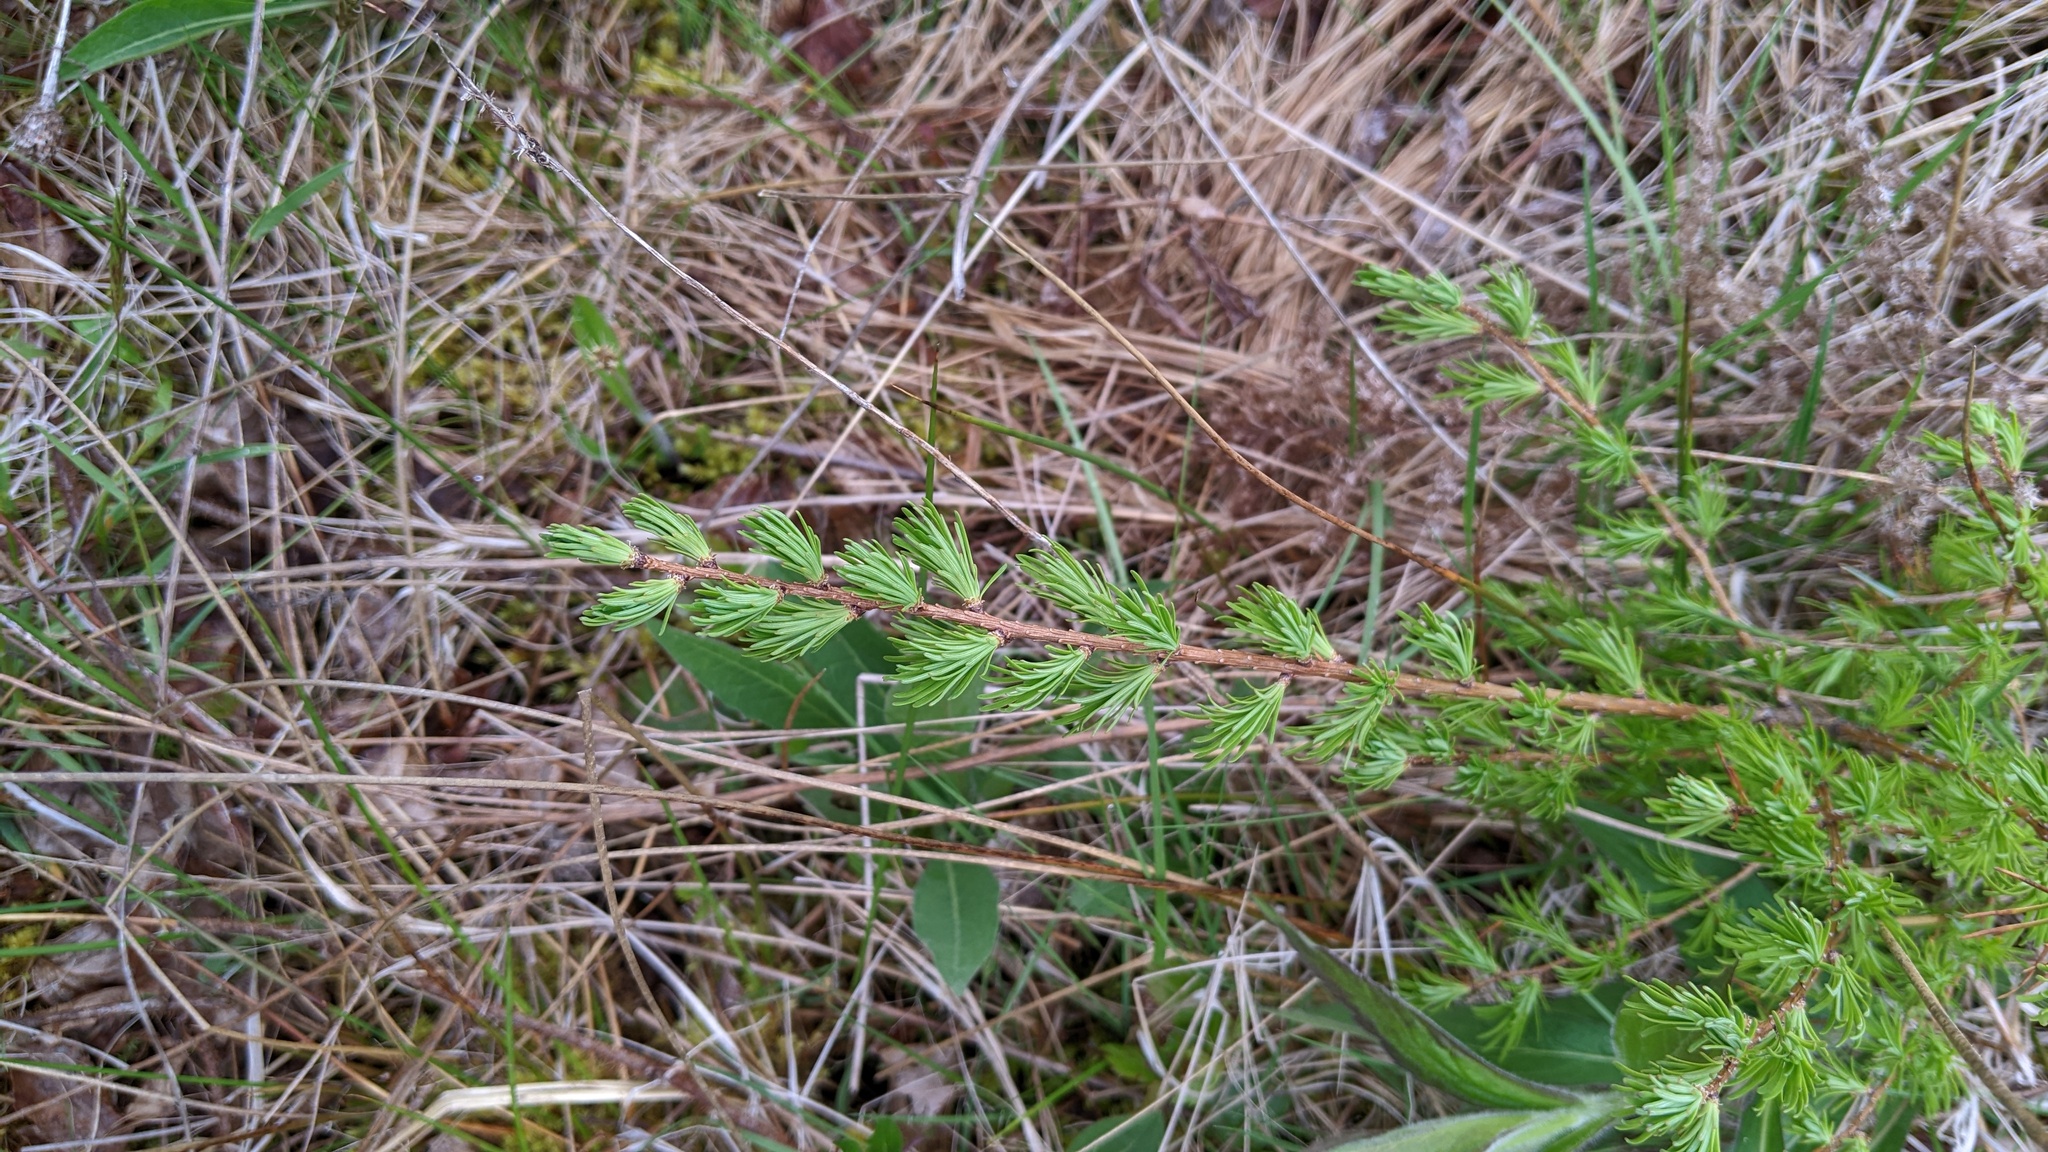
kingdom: Plantae
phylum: Tracheophyta
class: Pinopsida
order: Pinales
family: Pinaceae
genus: Larix
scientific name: Larix laricina
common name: American larch
